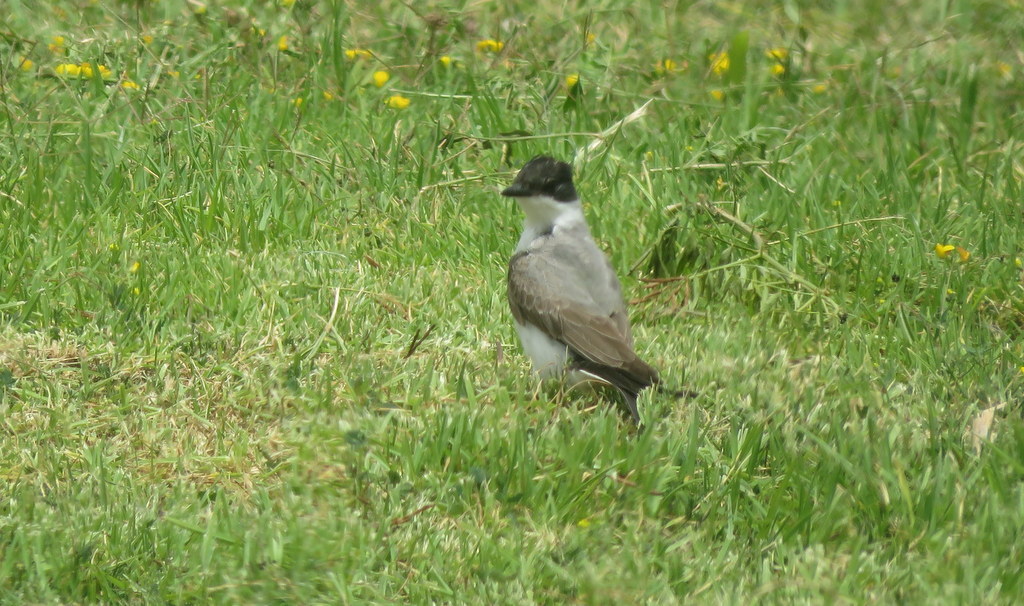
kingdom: Animalia
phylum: Chordata
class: Aves
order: Passeriformes
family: Tyrannidae
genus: Tyrannus
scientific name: Tyrannus savana
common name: Fork-tailed flycatcher
